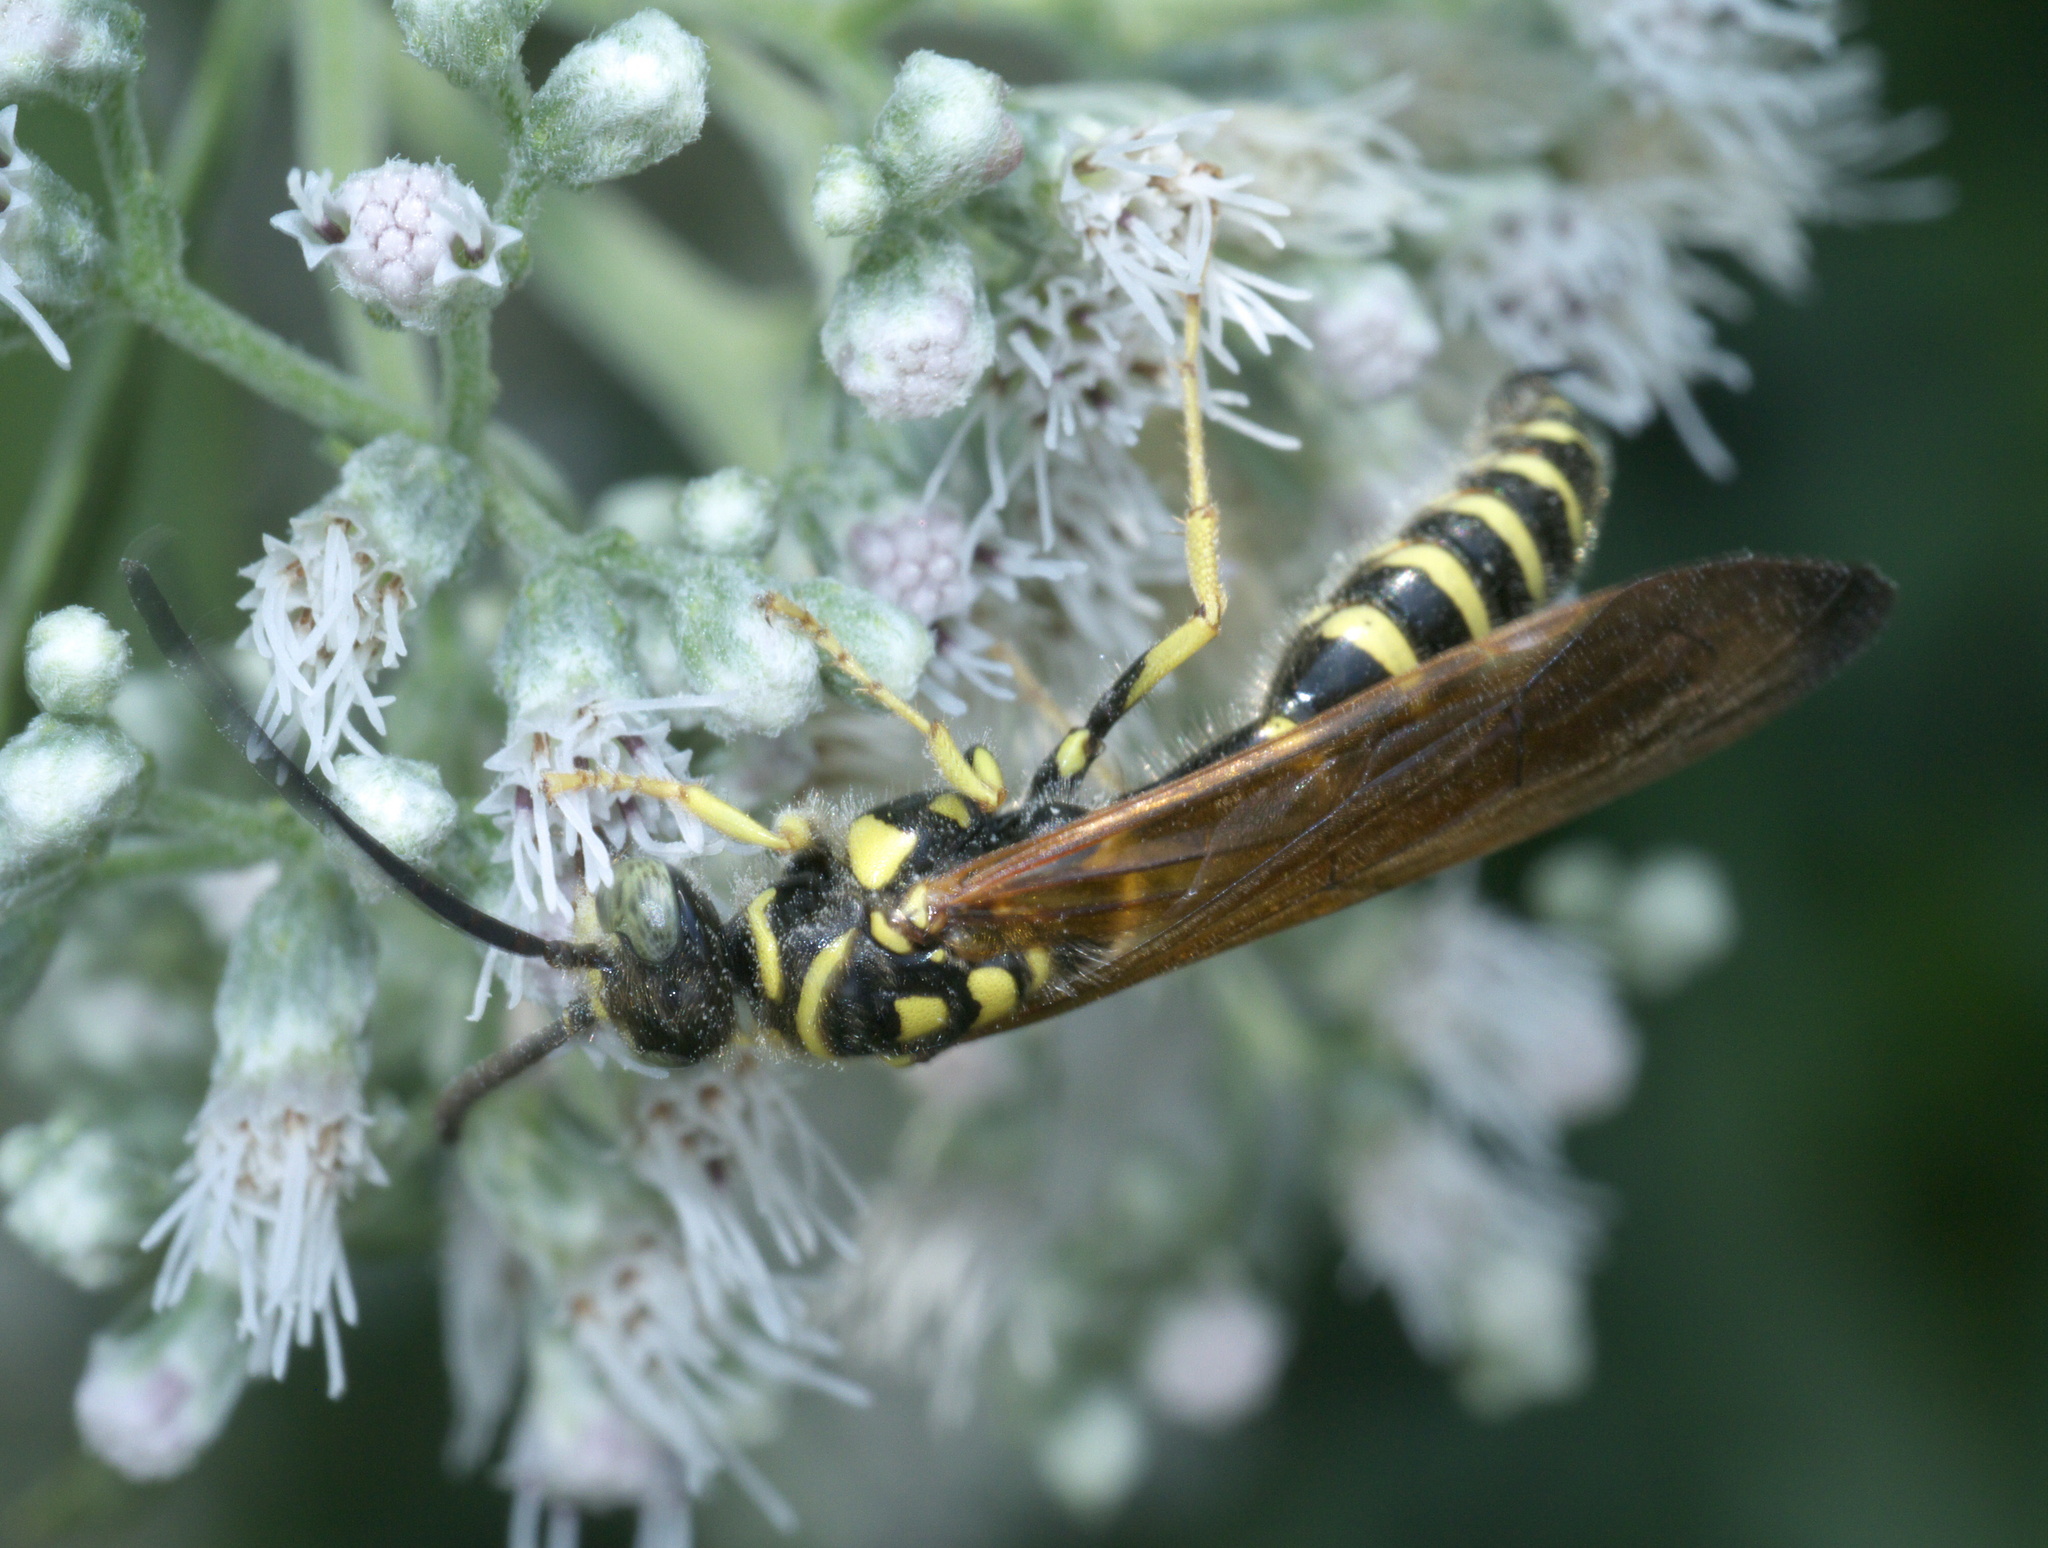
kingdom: Animalia
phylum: Arthropoda
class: Insecta
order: Hymenoptera
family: Tiphiidae
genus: Myzinum
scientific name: Myzinum quinquecinctum
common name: Five-banded thynnid wasp
